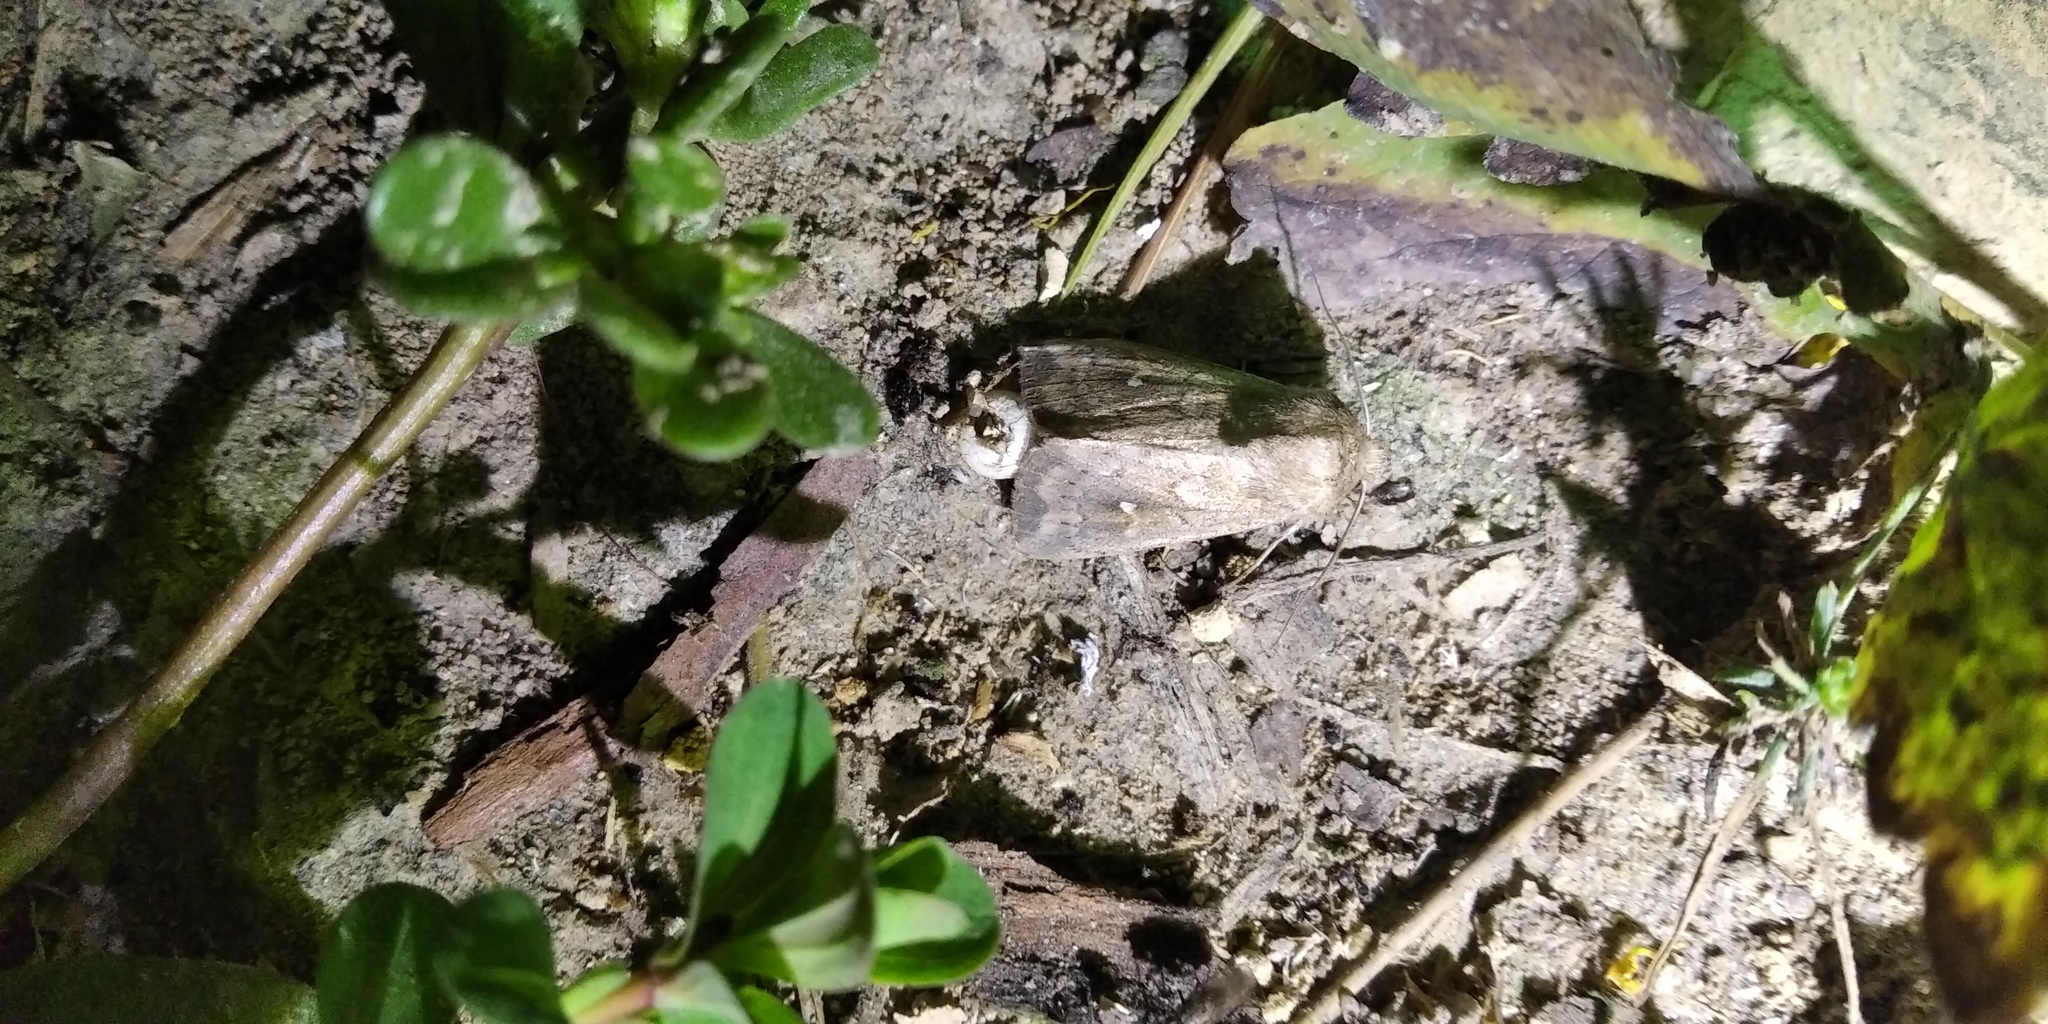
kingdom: Animalia
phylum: Arthropoda
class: Insecta
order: Lepidoptera
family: Noctuidae
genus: Mythimna
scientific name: Mythimna albipuncta
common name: White-point
